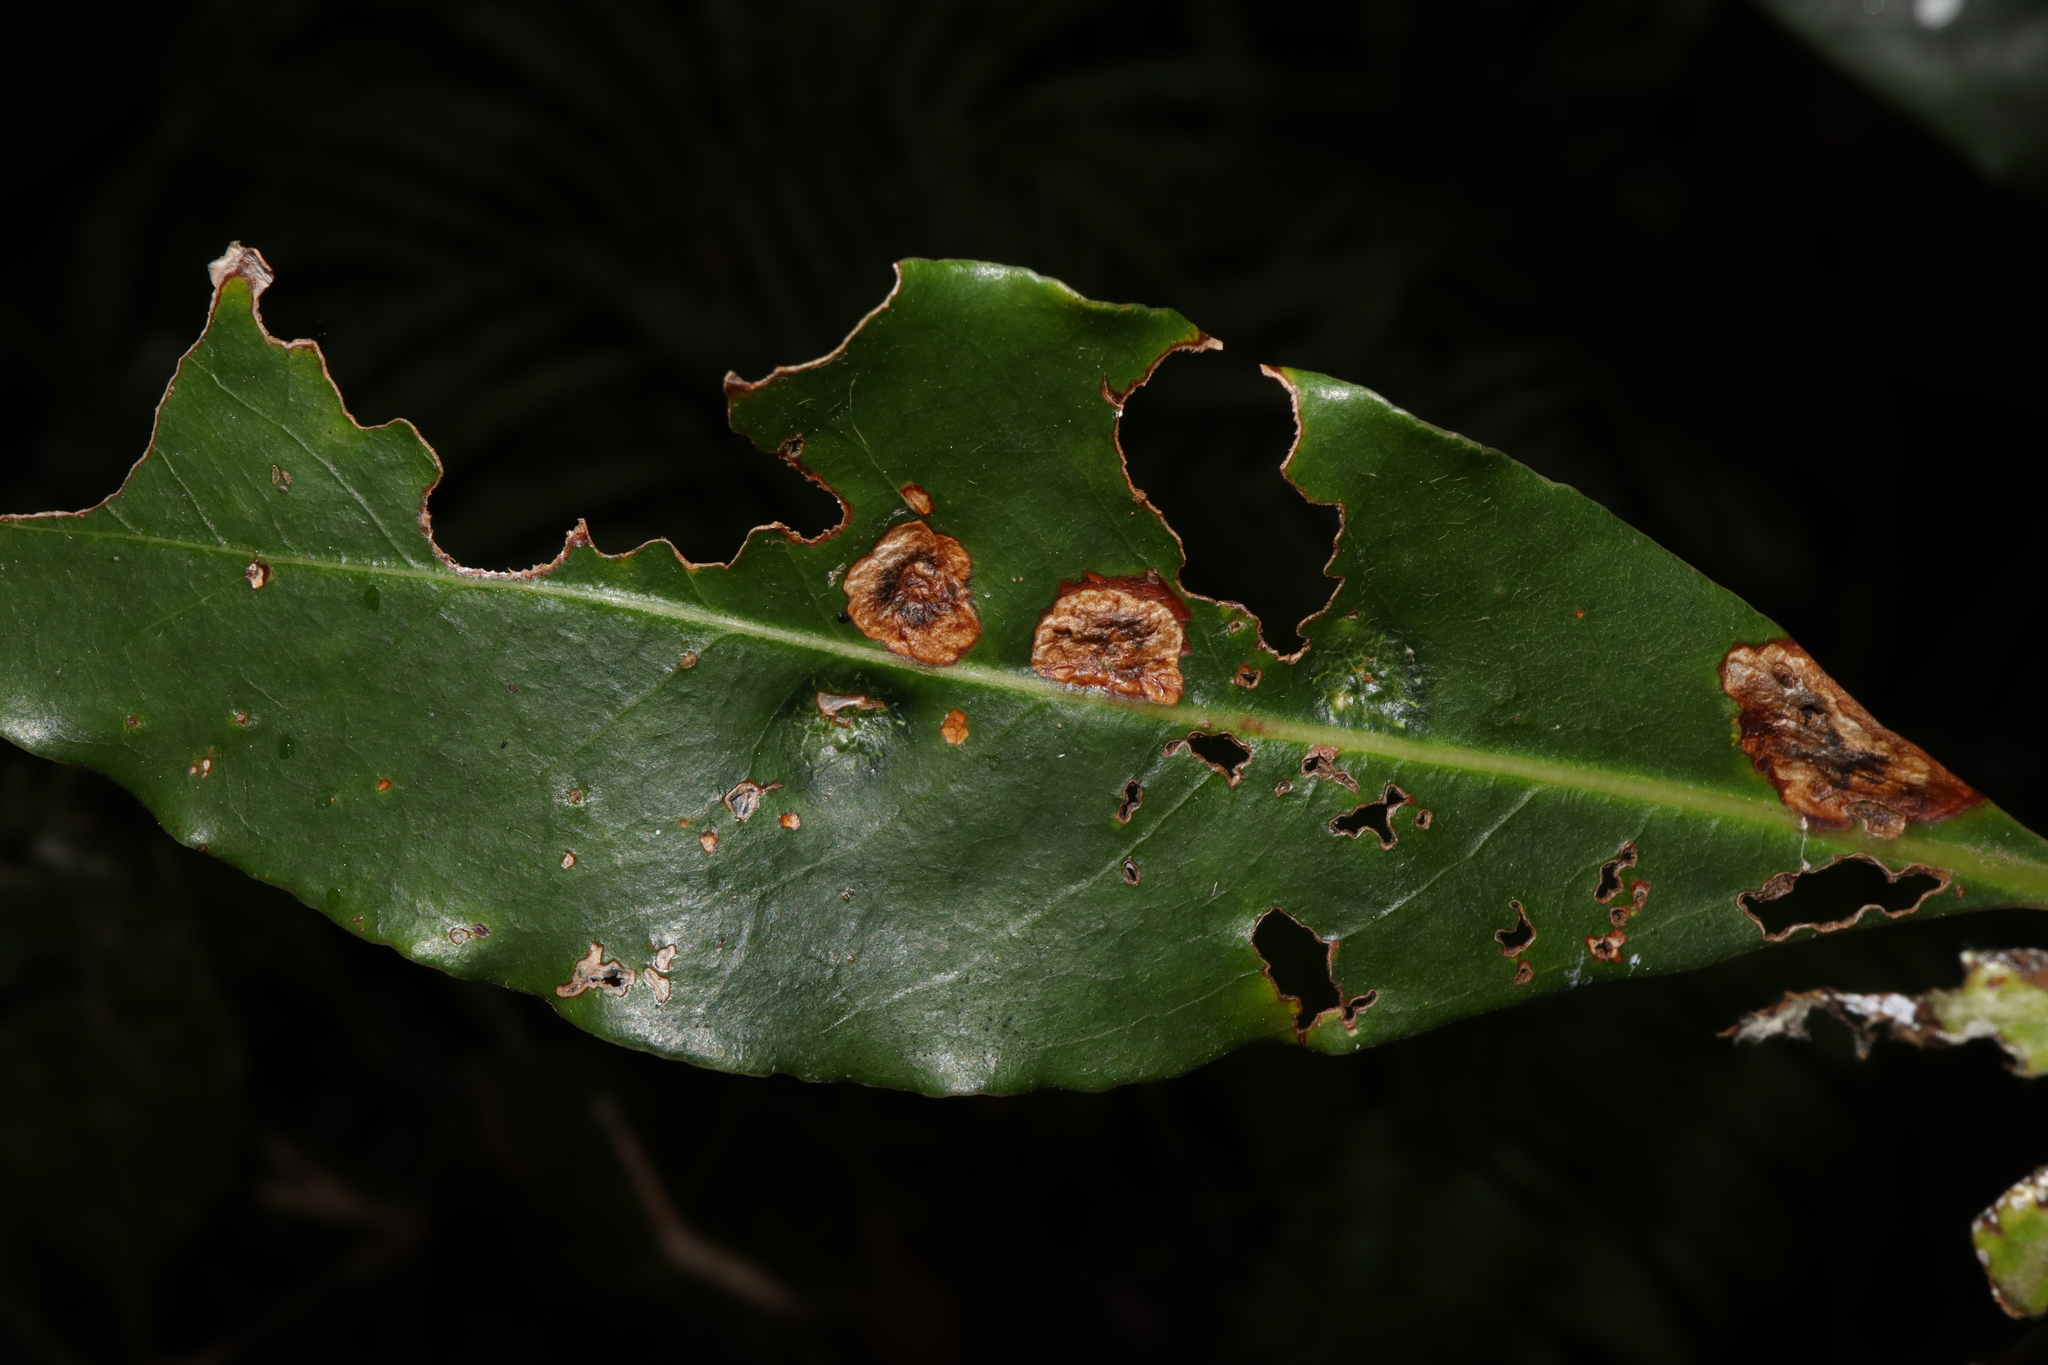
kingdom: Animalia
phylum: Arthropoda
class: Insecta
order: Diptera
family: Agromyzidae
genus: Phytoliriomyza
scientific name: Phytoliriomyza pittosporophylli
